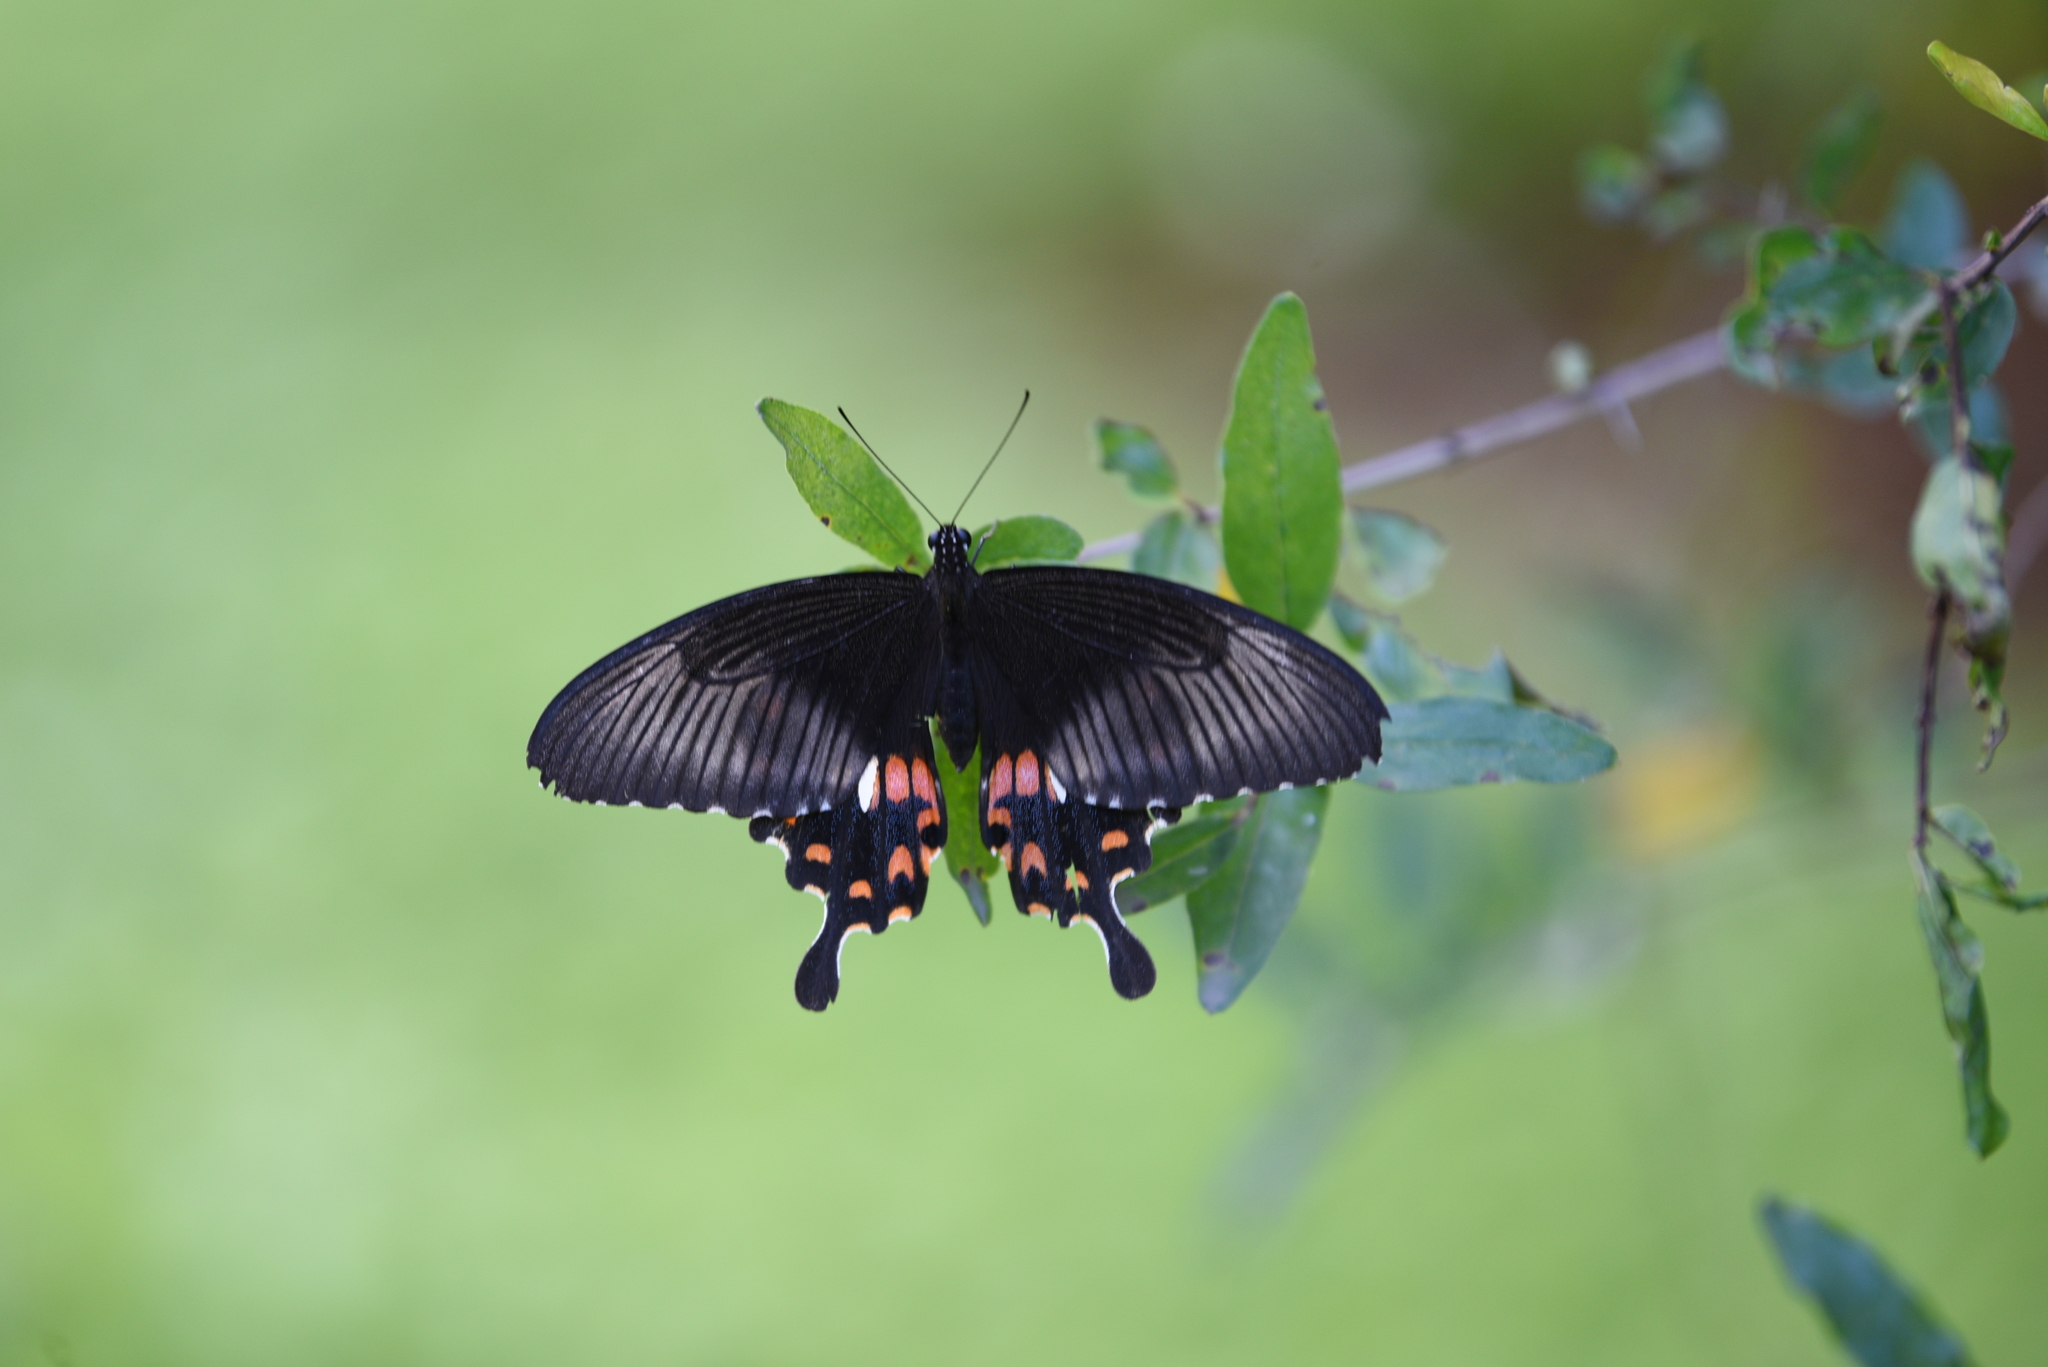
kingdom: Animalia
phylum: Arthropoda
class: Insecta
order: Lepidoptera
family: Papilionidae
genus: Papilio
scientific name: Papilio polytes
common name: Common mormon
